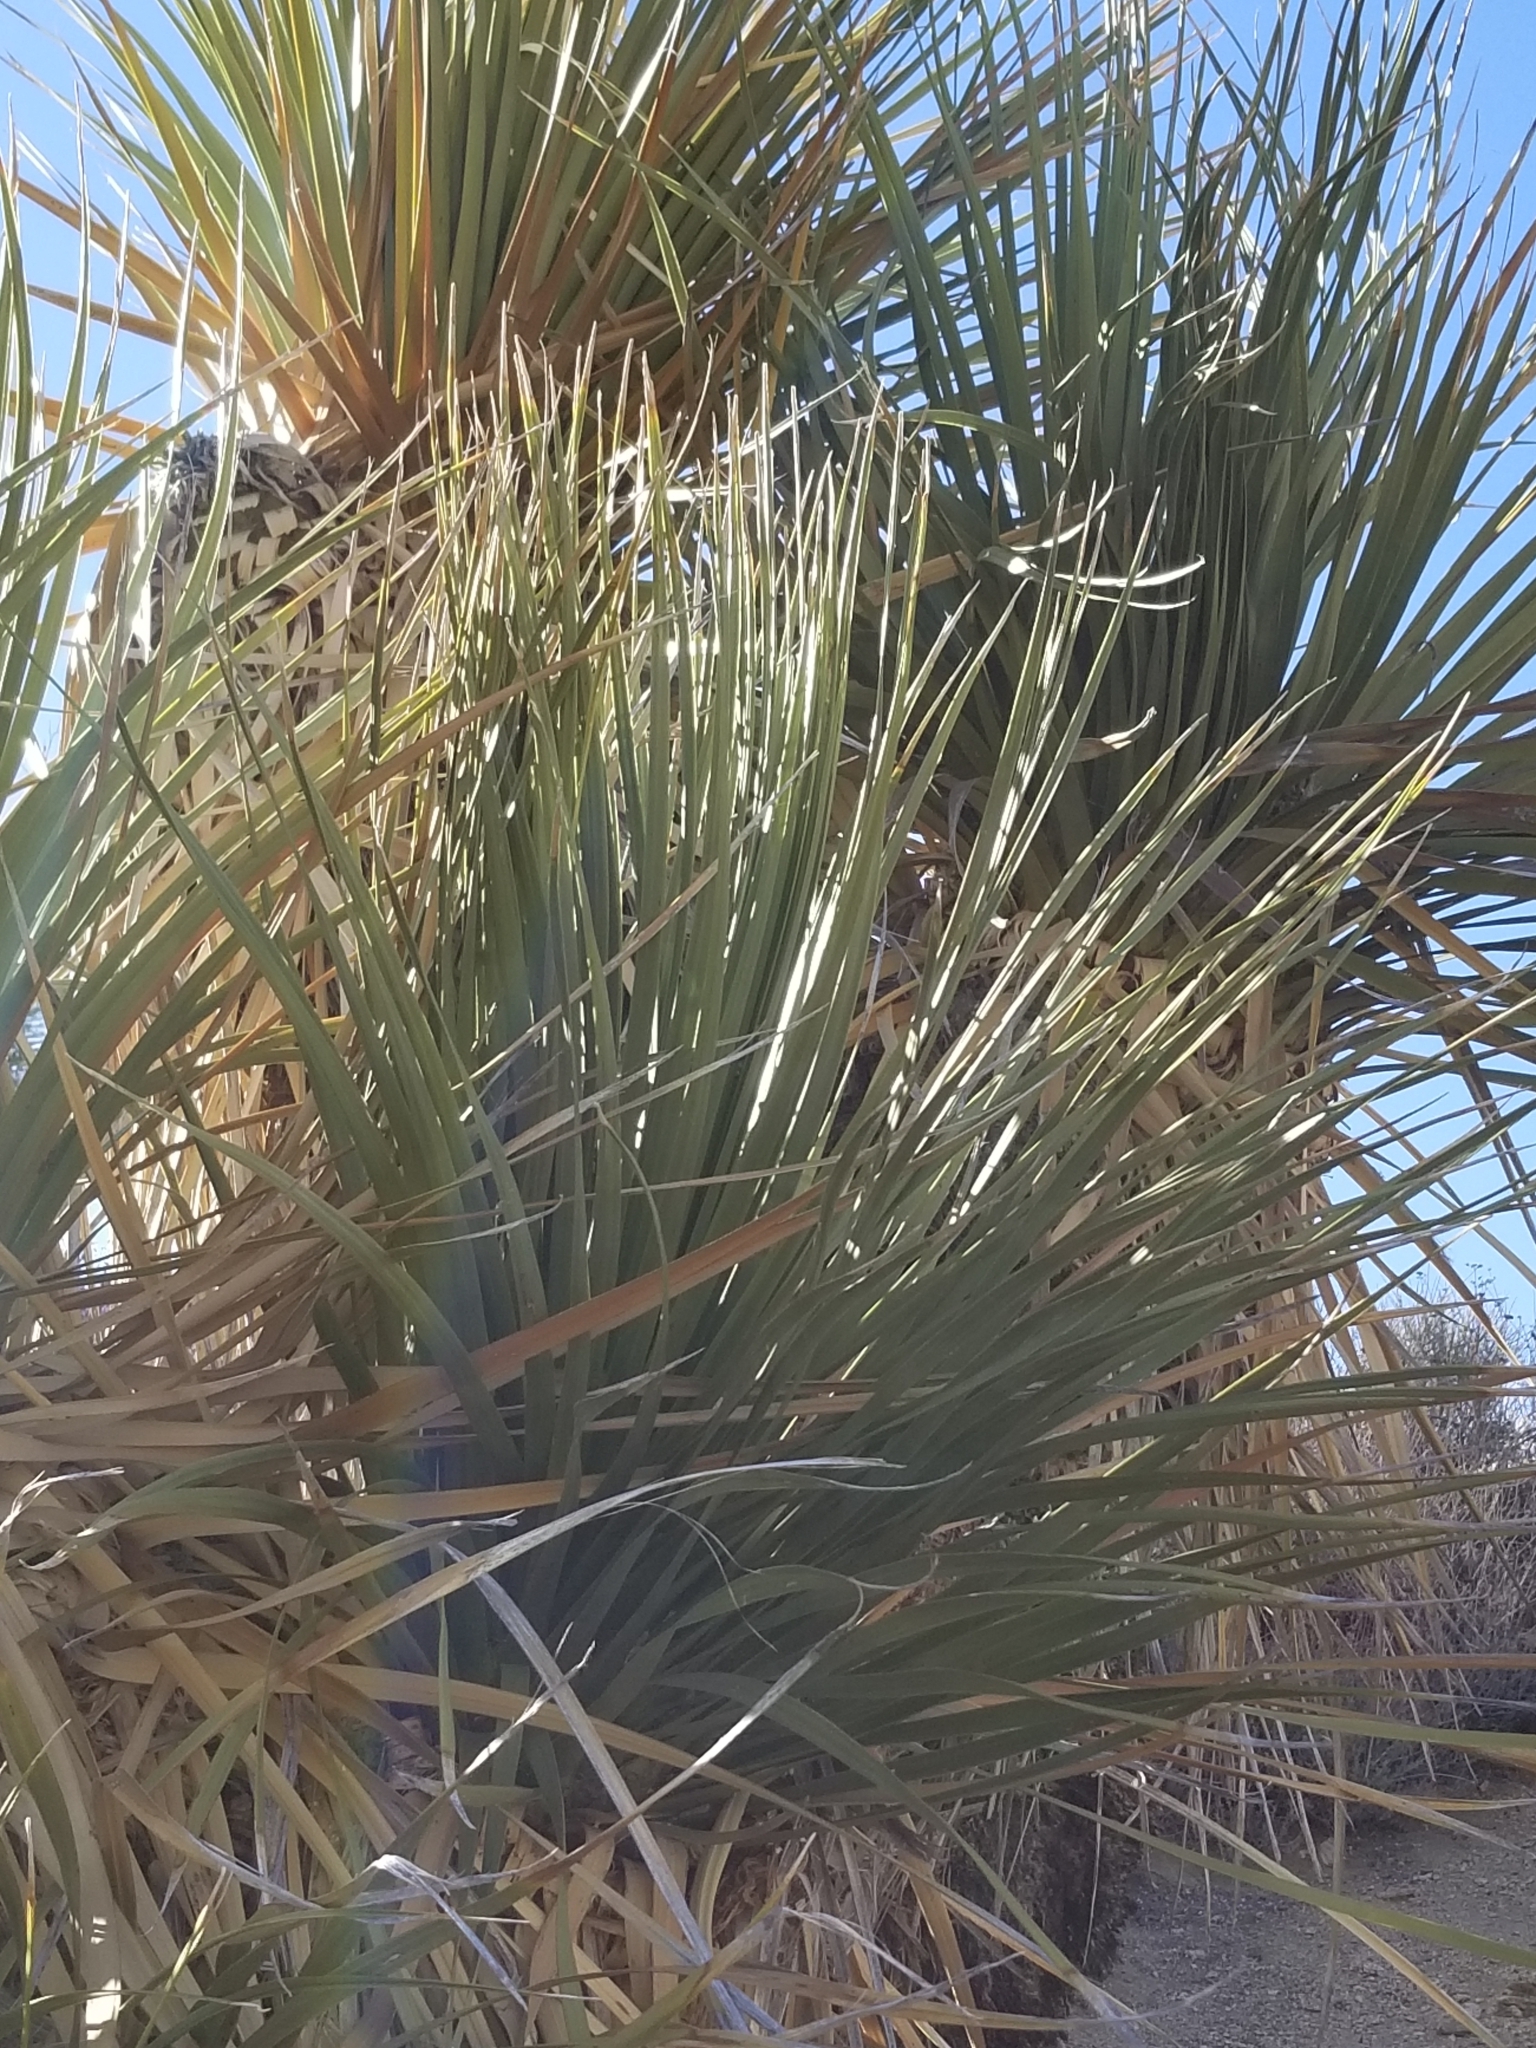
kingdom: Plantae
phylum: Tracheophyta
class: Liliopsida
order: Asparagales
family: Asparagaceae
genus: Nolina
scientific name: Nolina parryi
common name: Parry nolina
